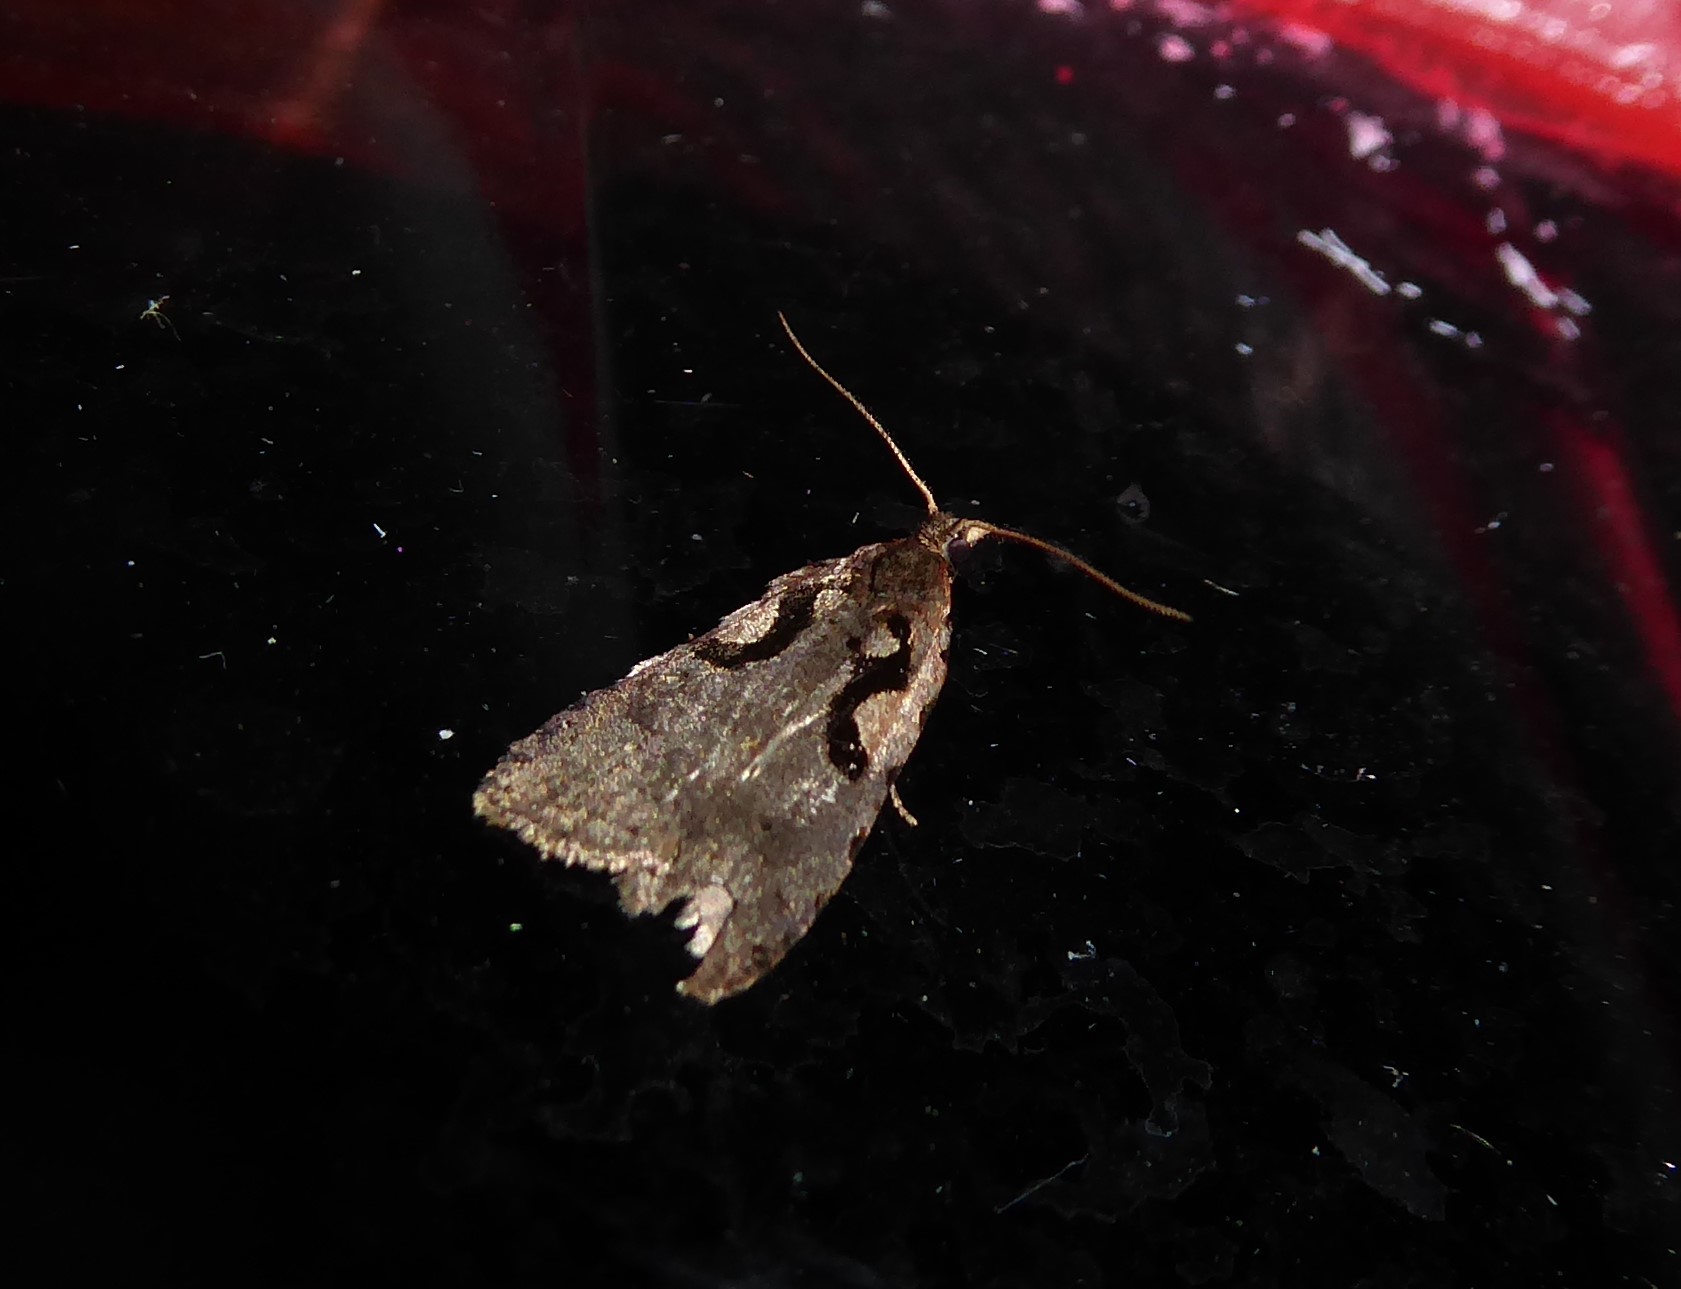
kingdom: Animalia
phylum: Arthropoda
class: Insecta
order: Lepidoptera
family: Tortricidae
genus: Cnephasia
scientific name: Cnephasia jactatana
